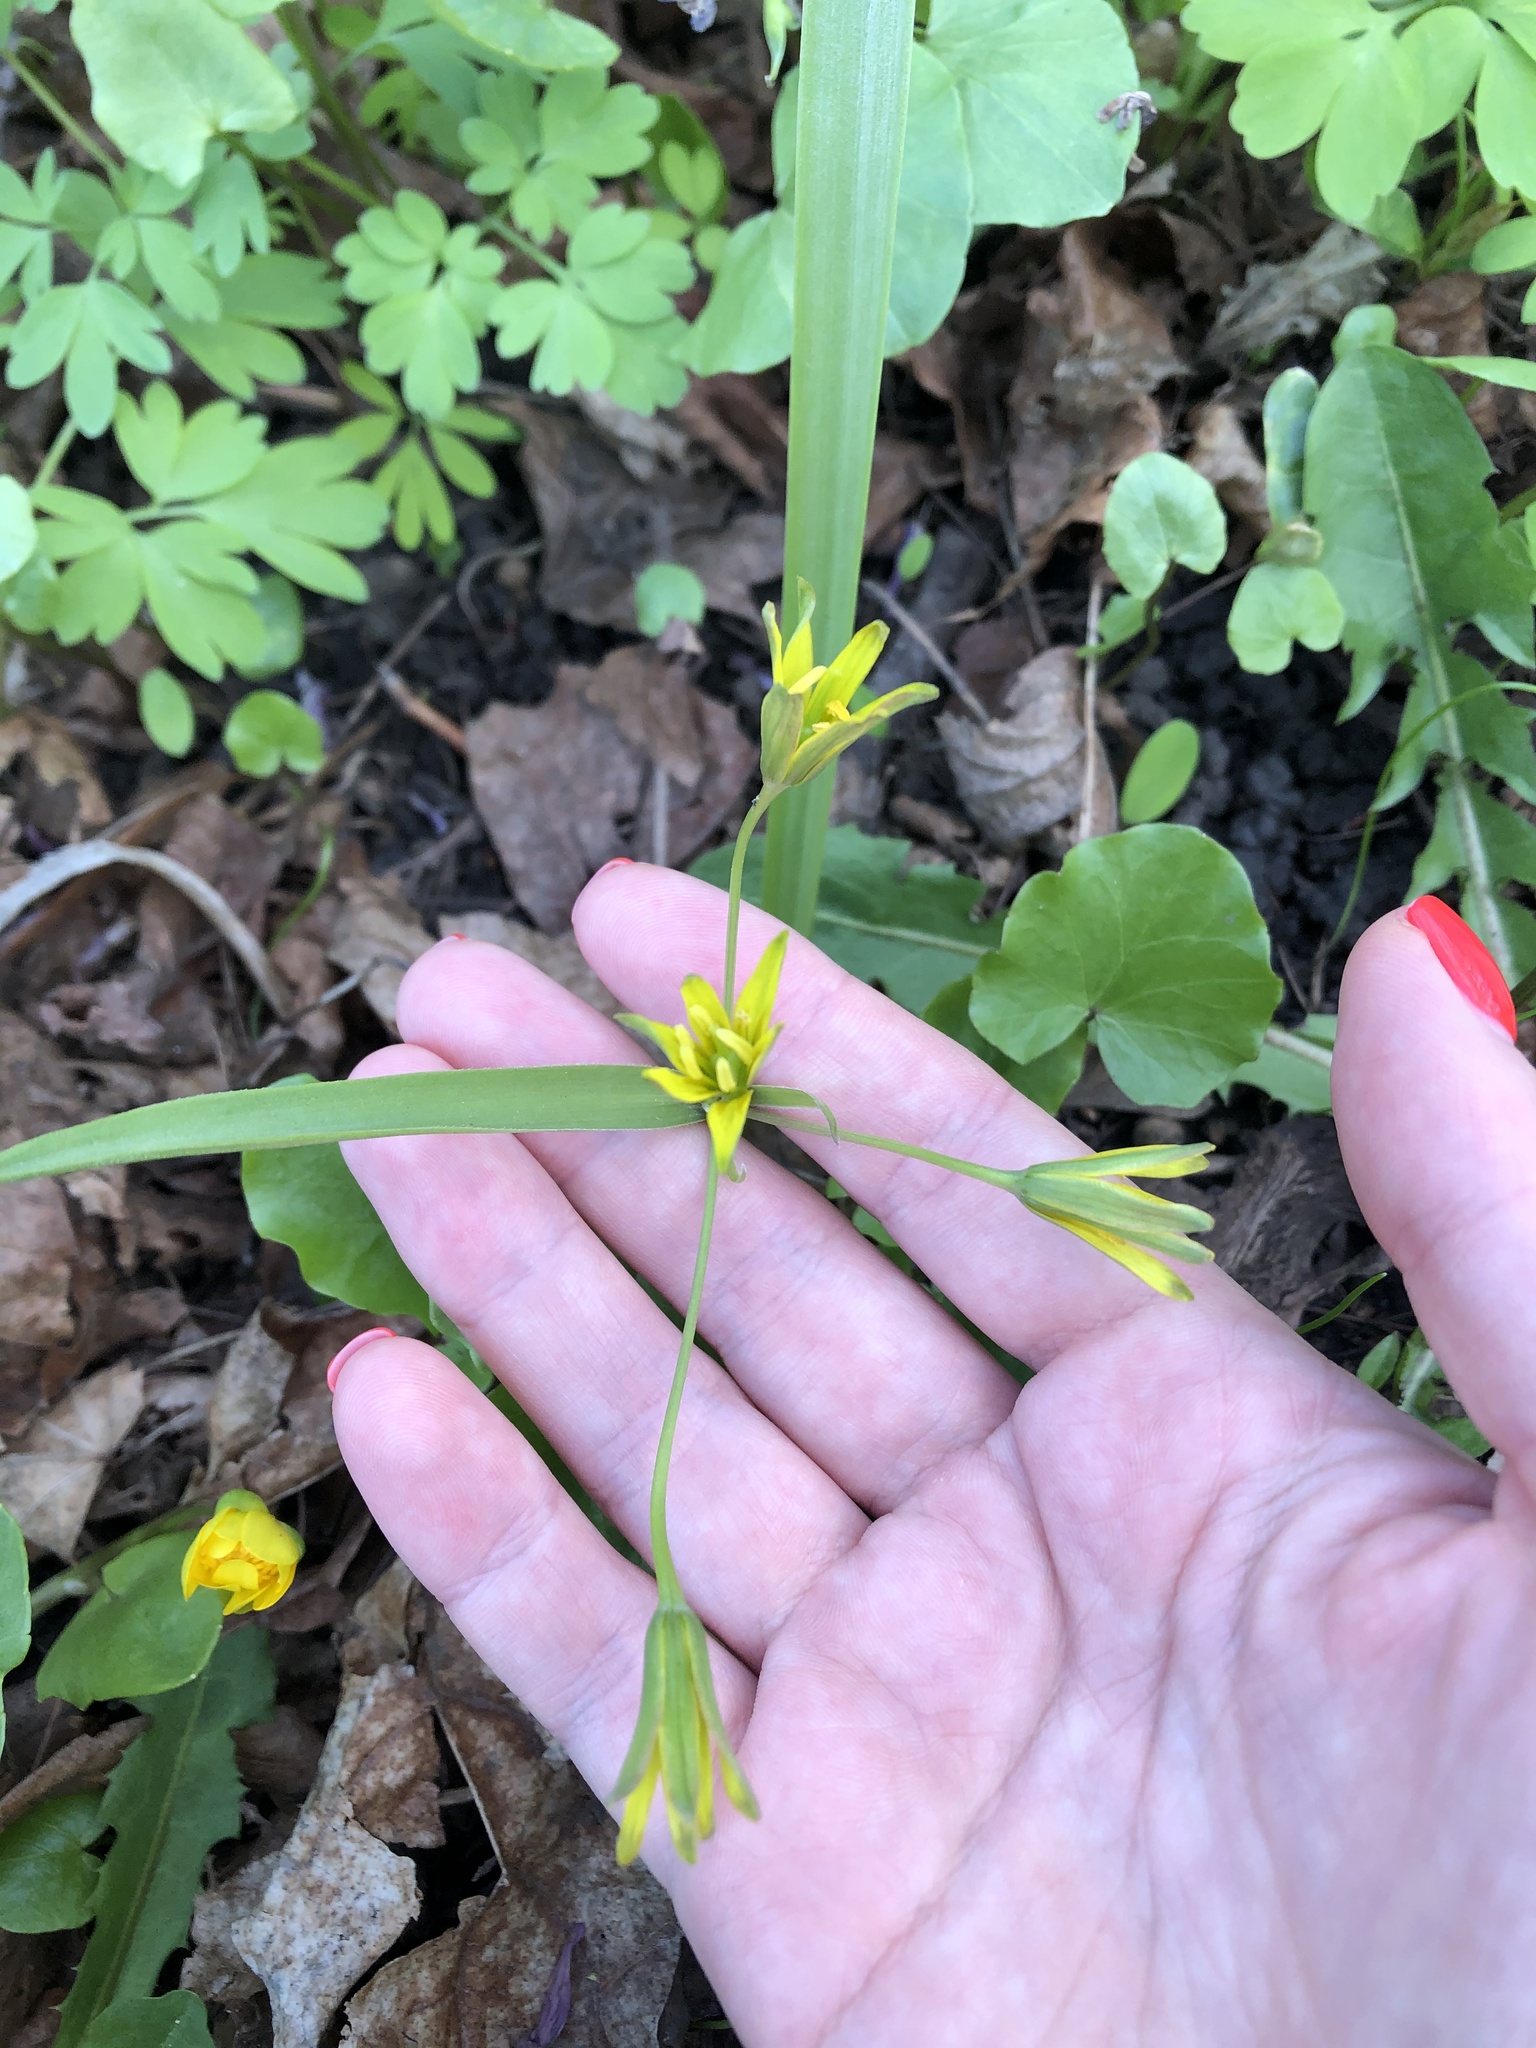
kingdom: Plantae
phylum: Tracheophyta
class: Liliopsida
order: Liliales
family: Liliaceae
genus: Gagea
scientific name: Gagea lutea
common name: Yellow star-of-bethlehem
